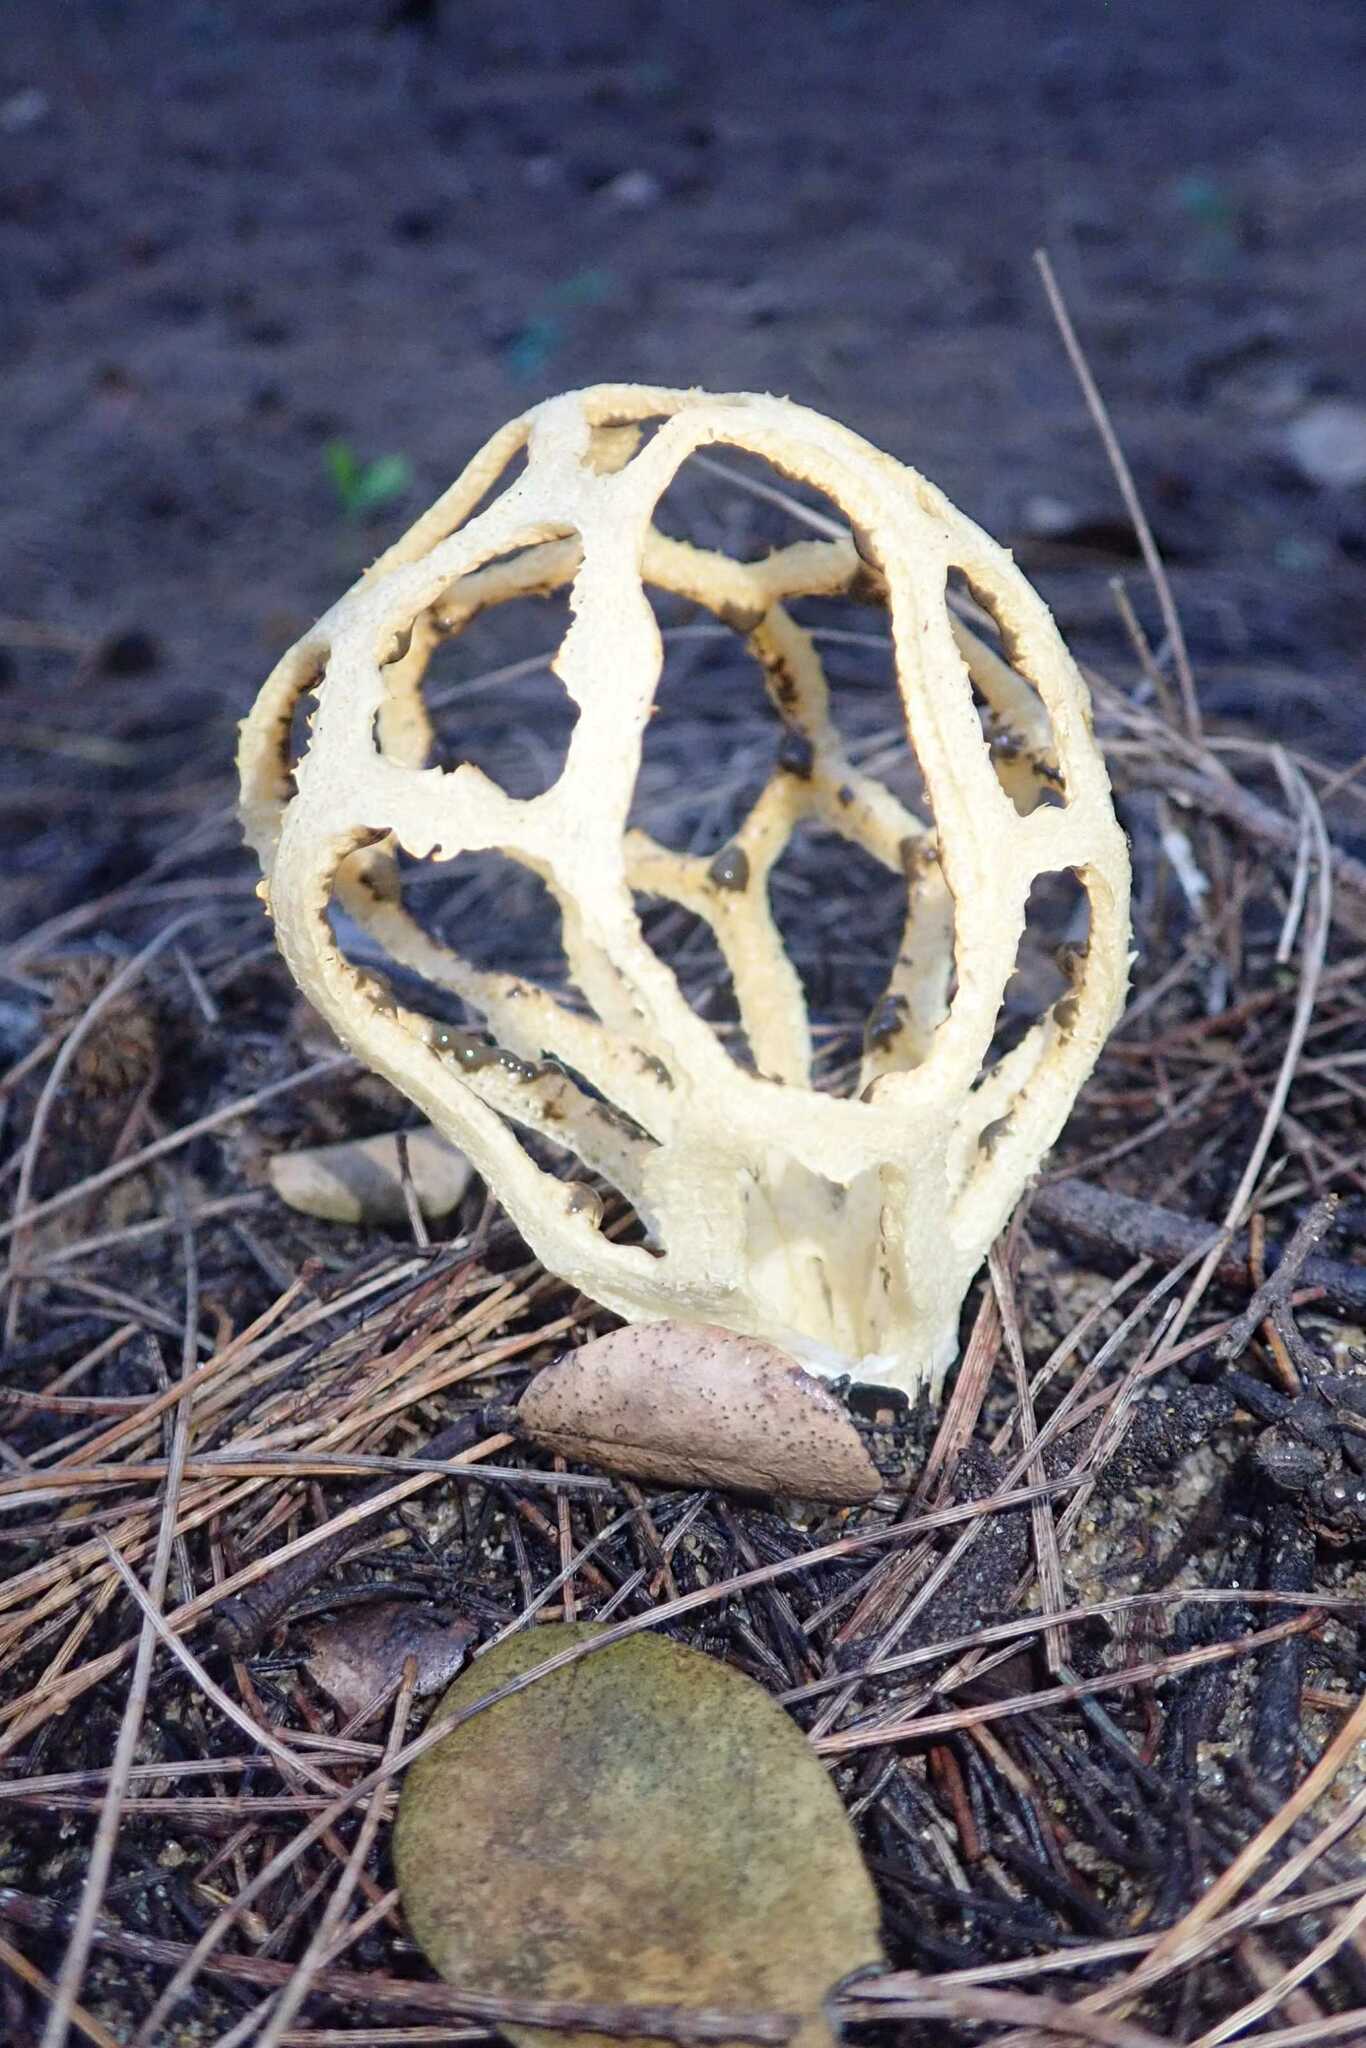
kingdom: Fungi
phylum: Basidiomycota
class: Agaricomycetes
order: Phallales
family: Phallaceae
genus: Clathrus
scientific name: Clathrus baumii
